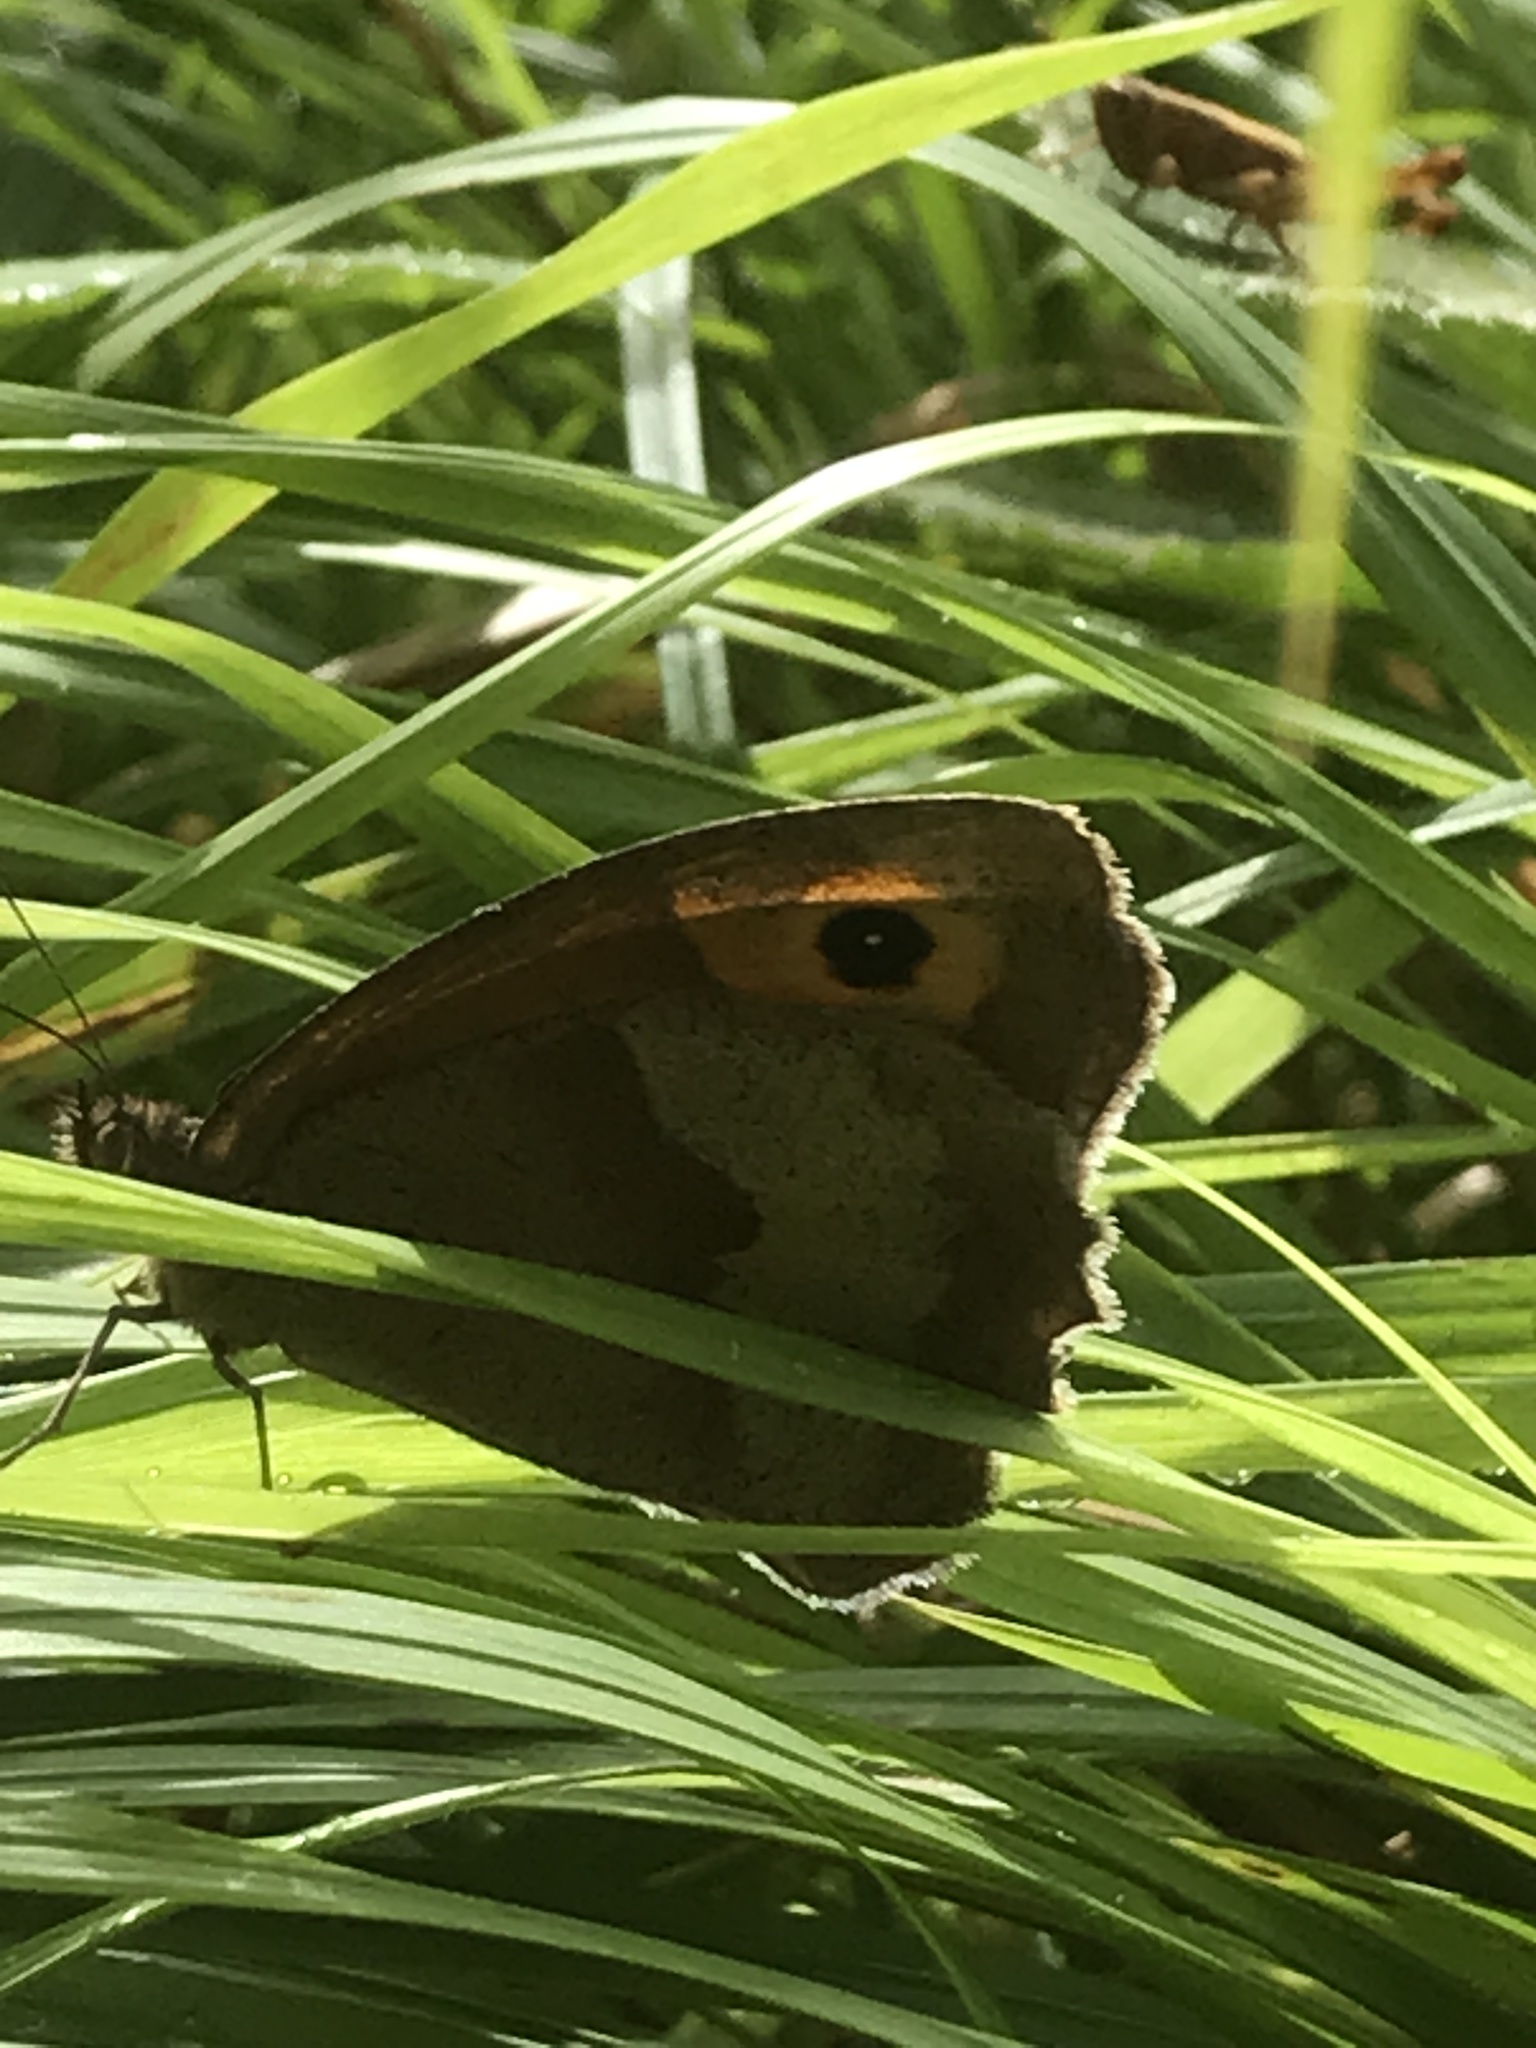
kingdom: Animalia
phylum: Arthropoda
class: Insecta
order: Lepidoptera
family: Nymphalidae
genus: Maniola
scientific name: Maniola jurtina
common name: Meadow brown
